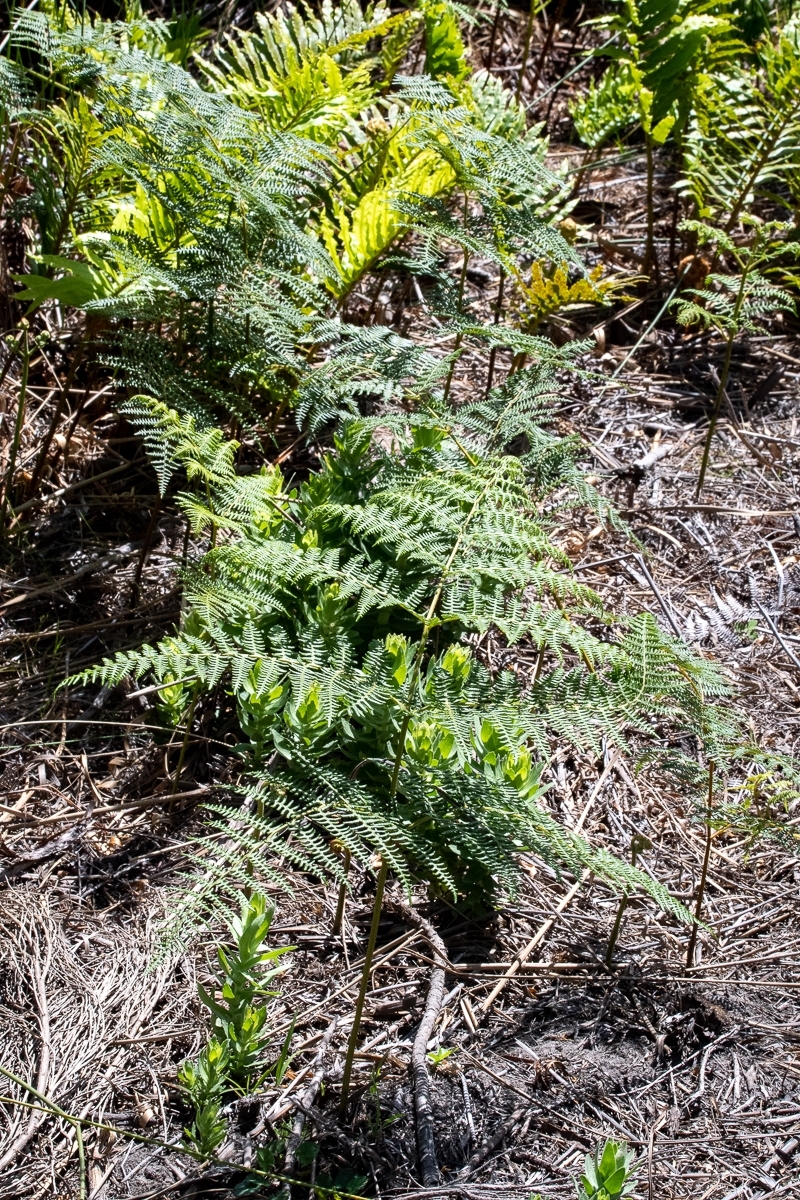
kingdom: Plantae
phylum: Tracheophyta
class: Polypodiopsida
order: Polypodiales
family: Dennstaedtiaceae
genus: Pteridium
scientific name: Pteridium aquilinum
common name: Bracken
